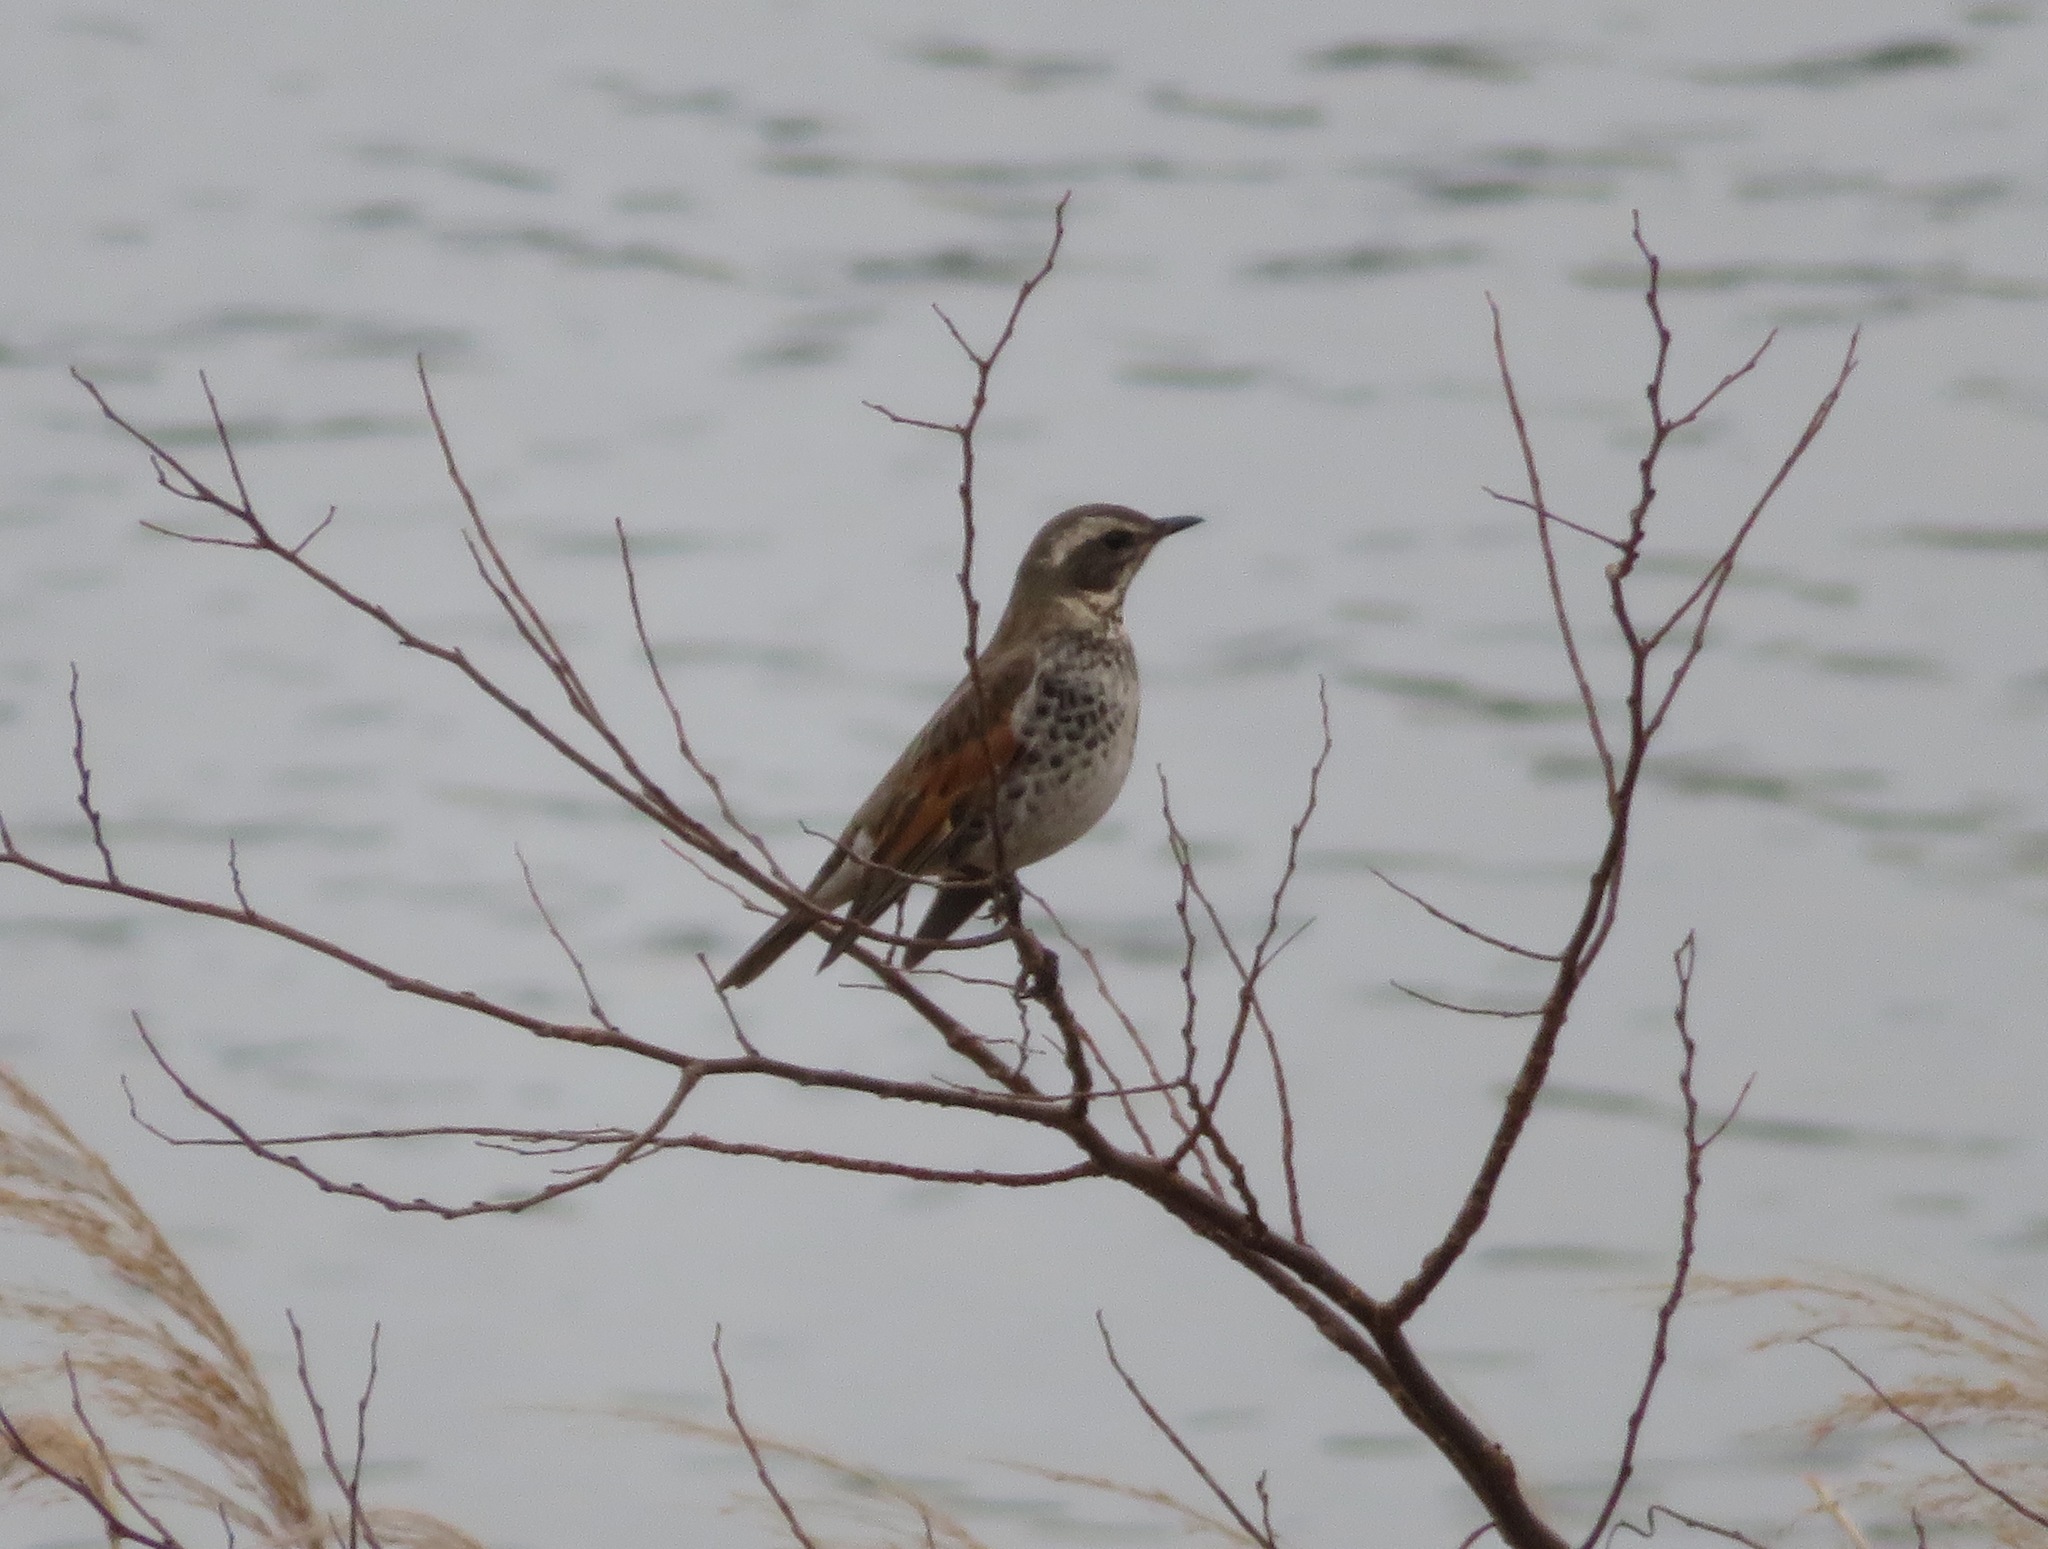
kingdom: Animalia
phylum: Chordata
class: Aves
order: Passeriformes
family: Turdidae
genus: Turdus
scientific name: Turdus eunomus
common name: Dusky thrush
